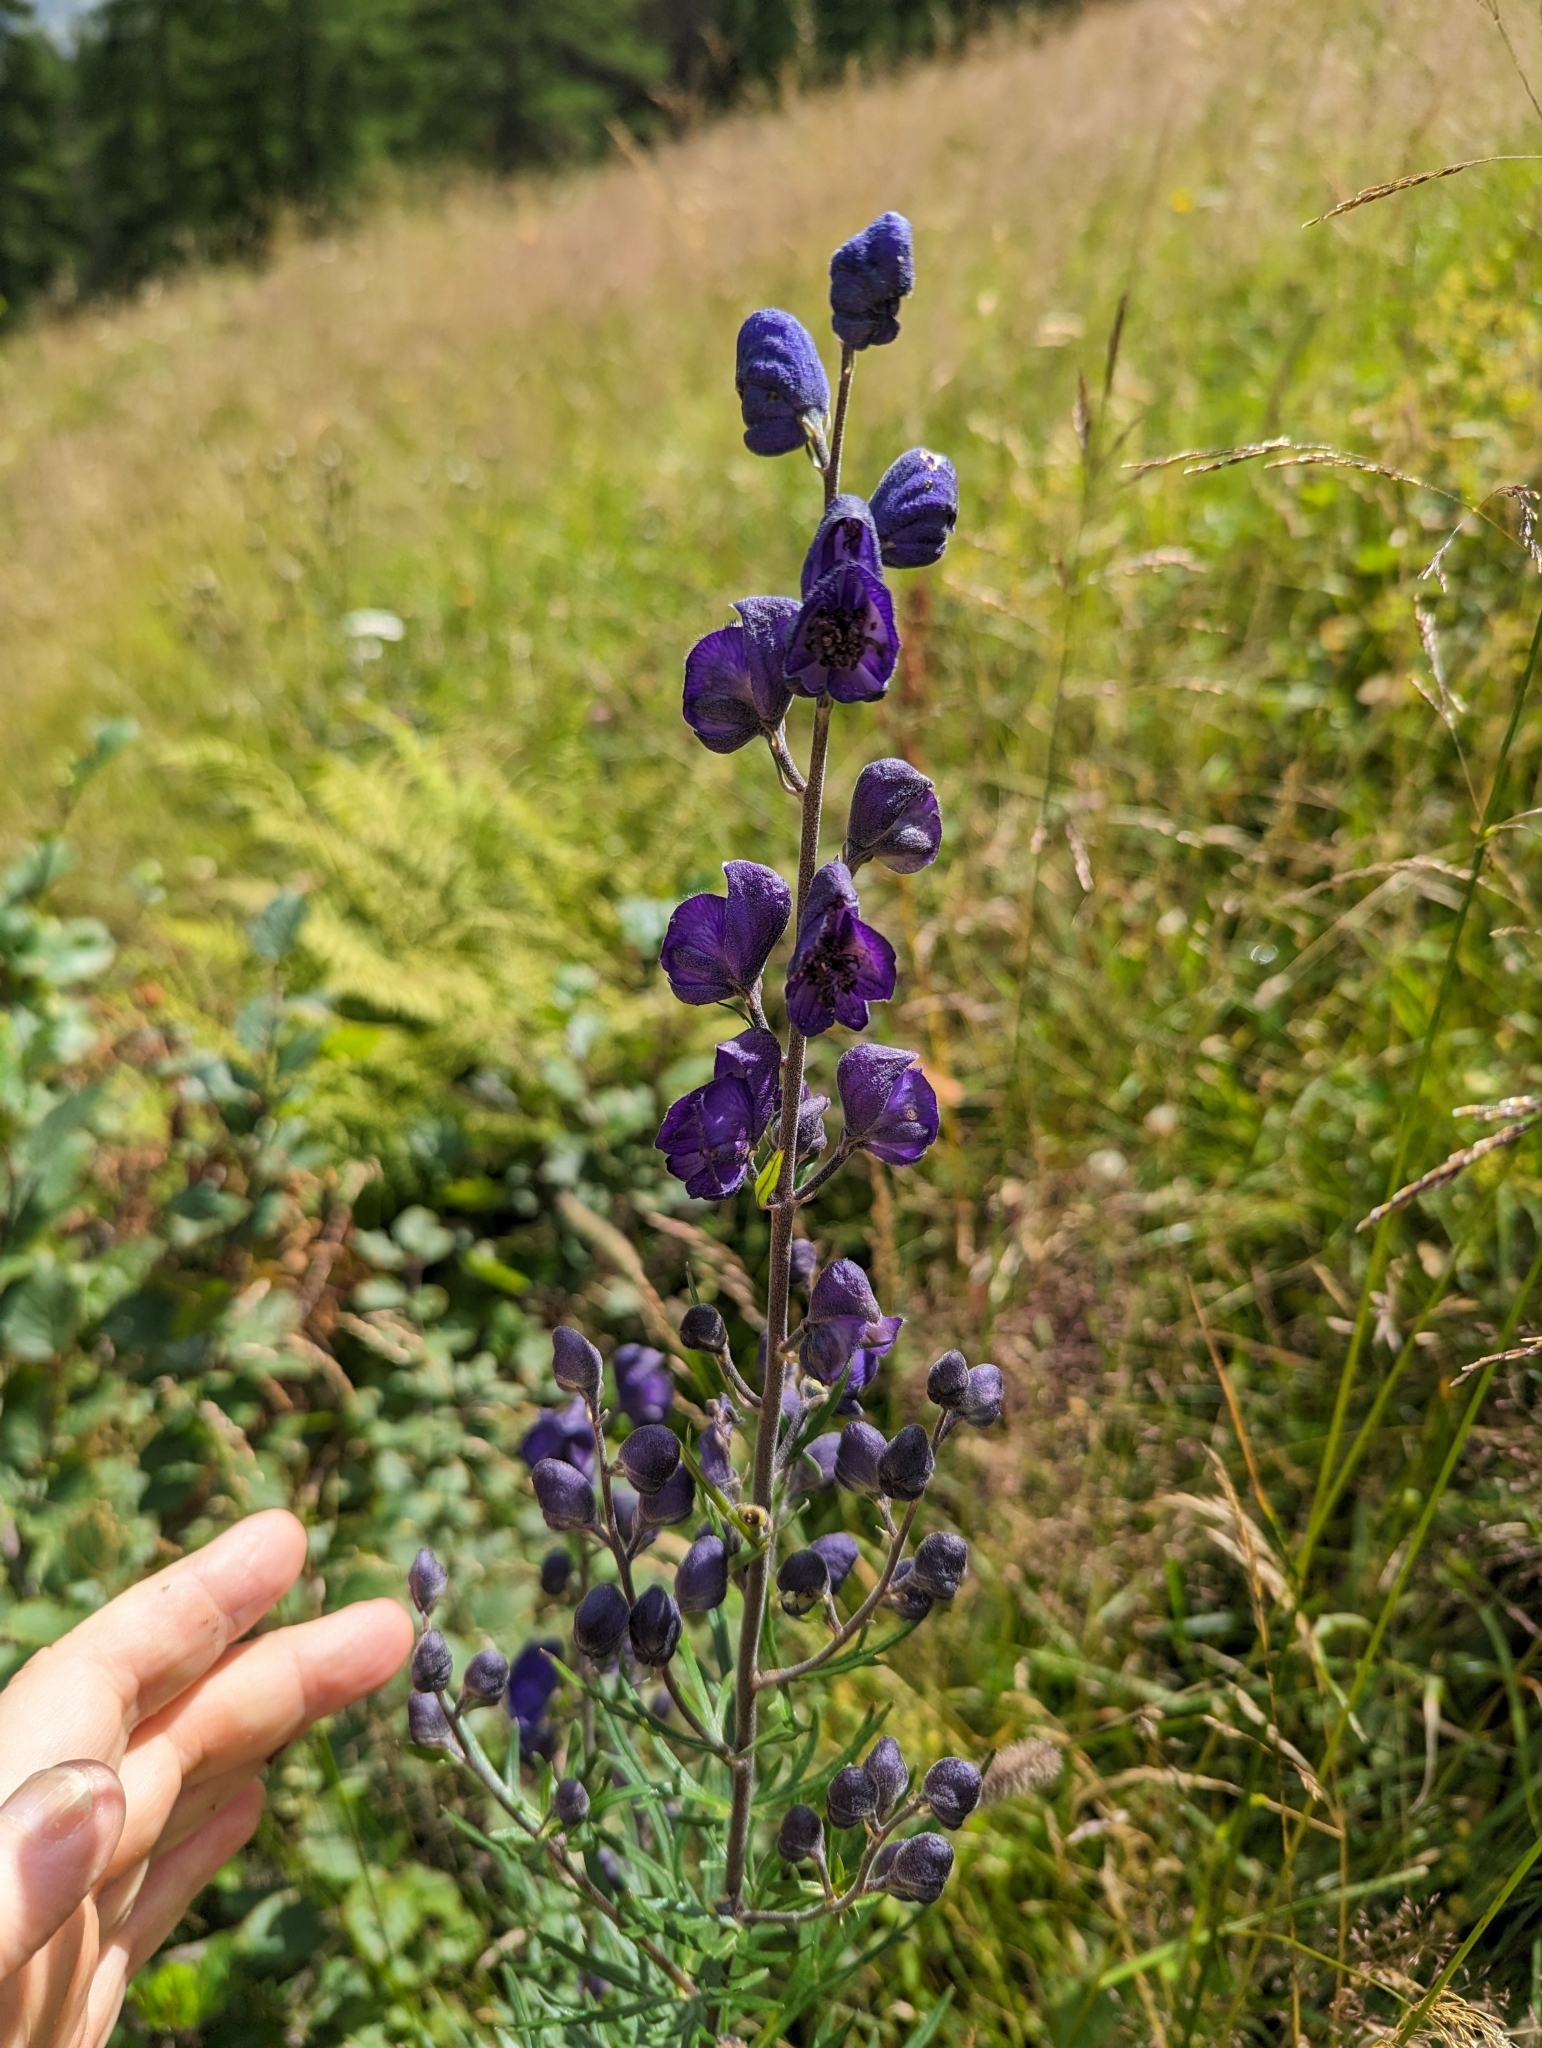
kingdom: Plantae
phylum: Tracheophyta
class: Magnoliopsida
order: Ranunculales
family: Ranunculaceae
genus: Aconitum
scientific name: Aconitum napellus
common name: Garden monkshood
